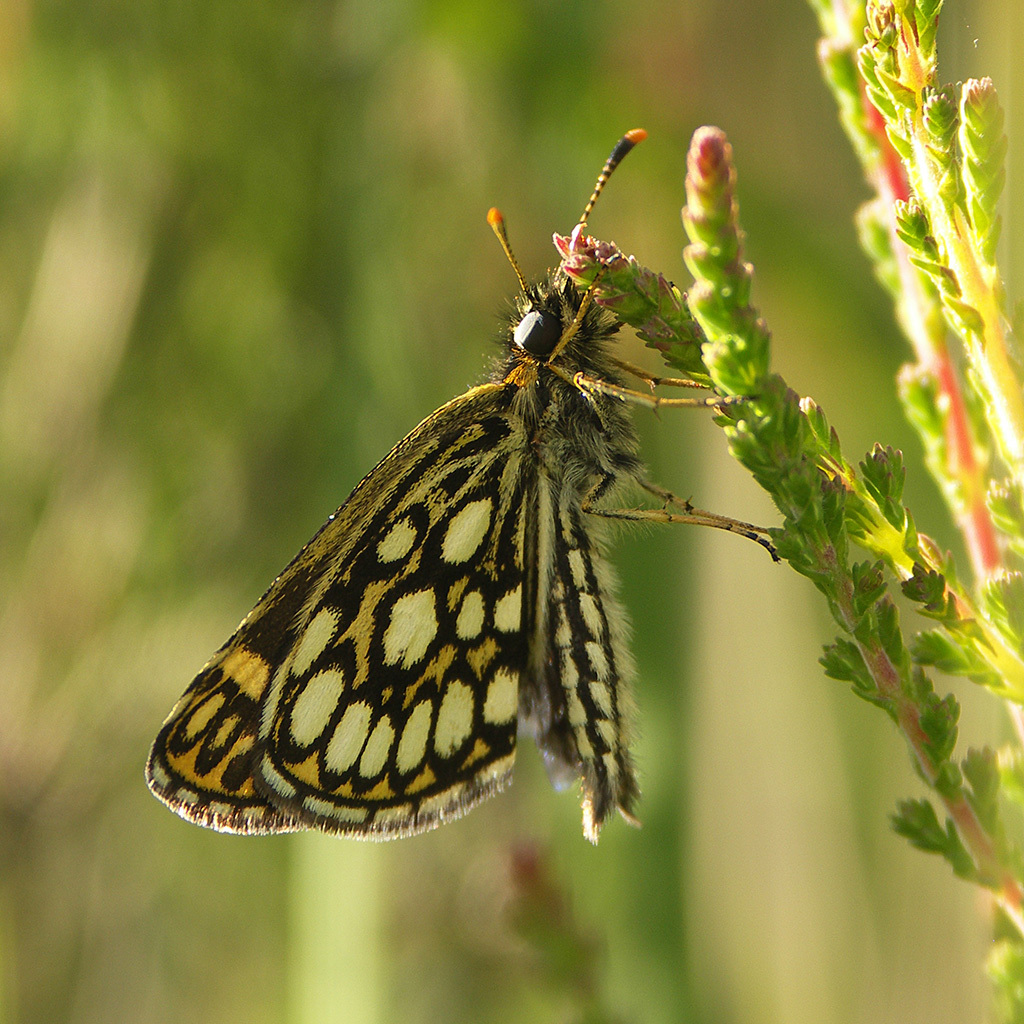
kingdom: Animalia
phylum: Arthropoda
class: Insecta
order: Lepidoptera
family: Hesperiidae
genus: Heteropterus
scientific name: Heteropterus morpheus
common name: Large chequered skipper
